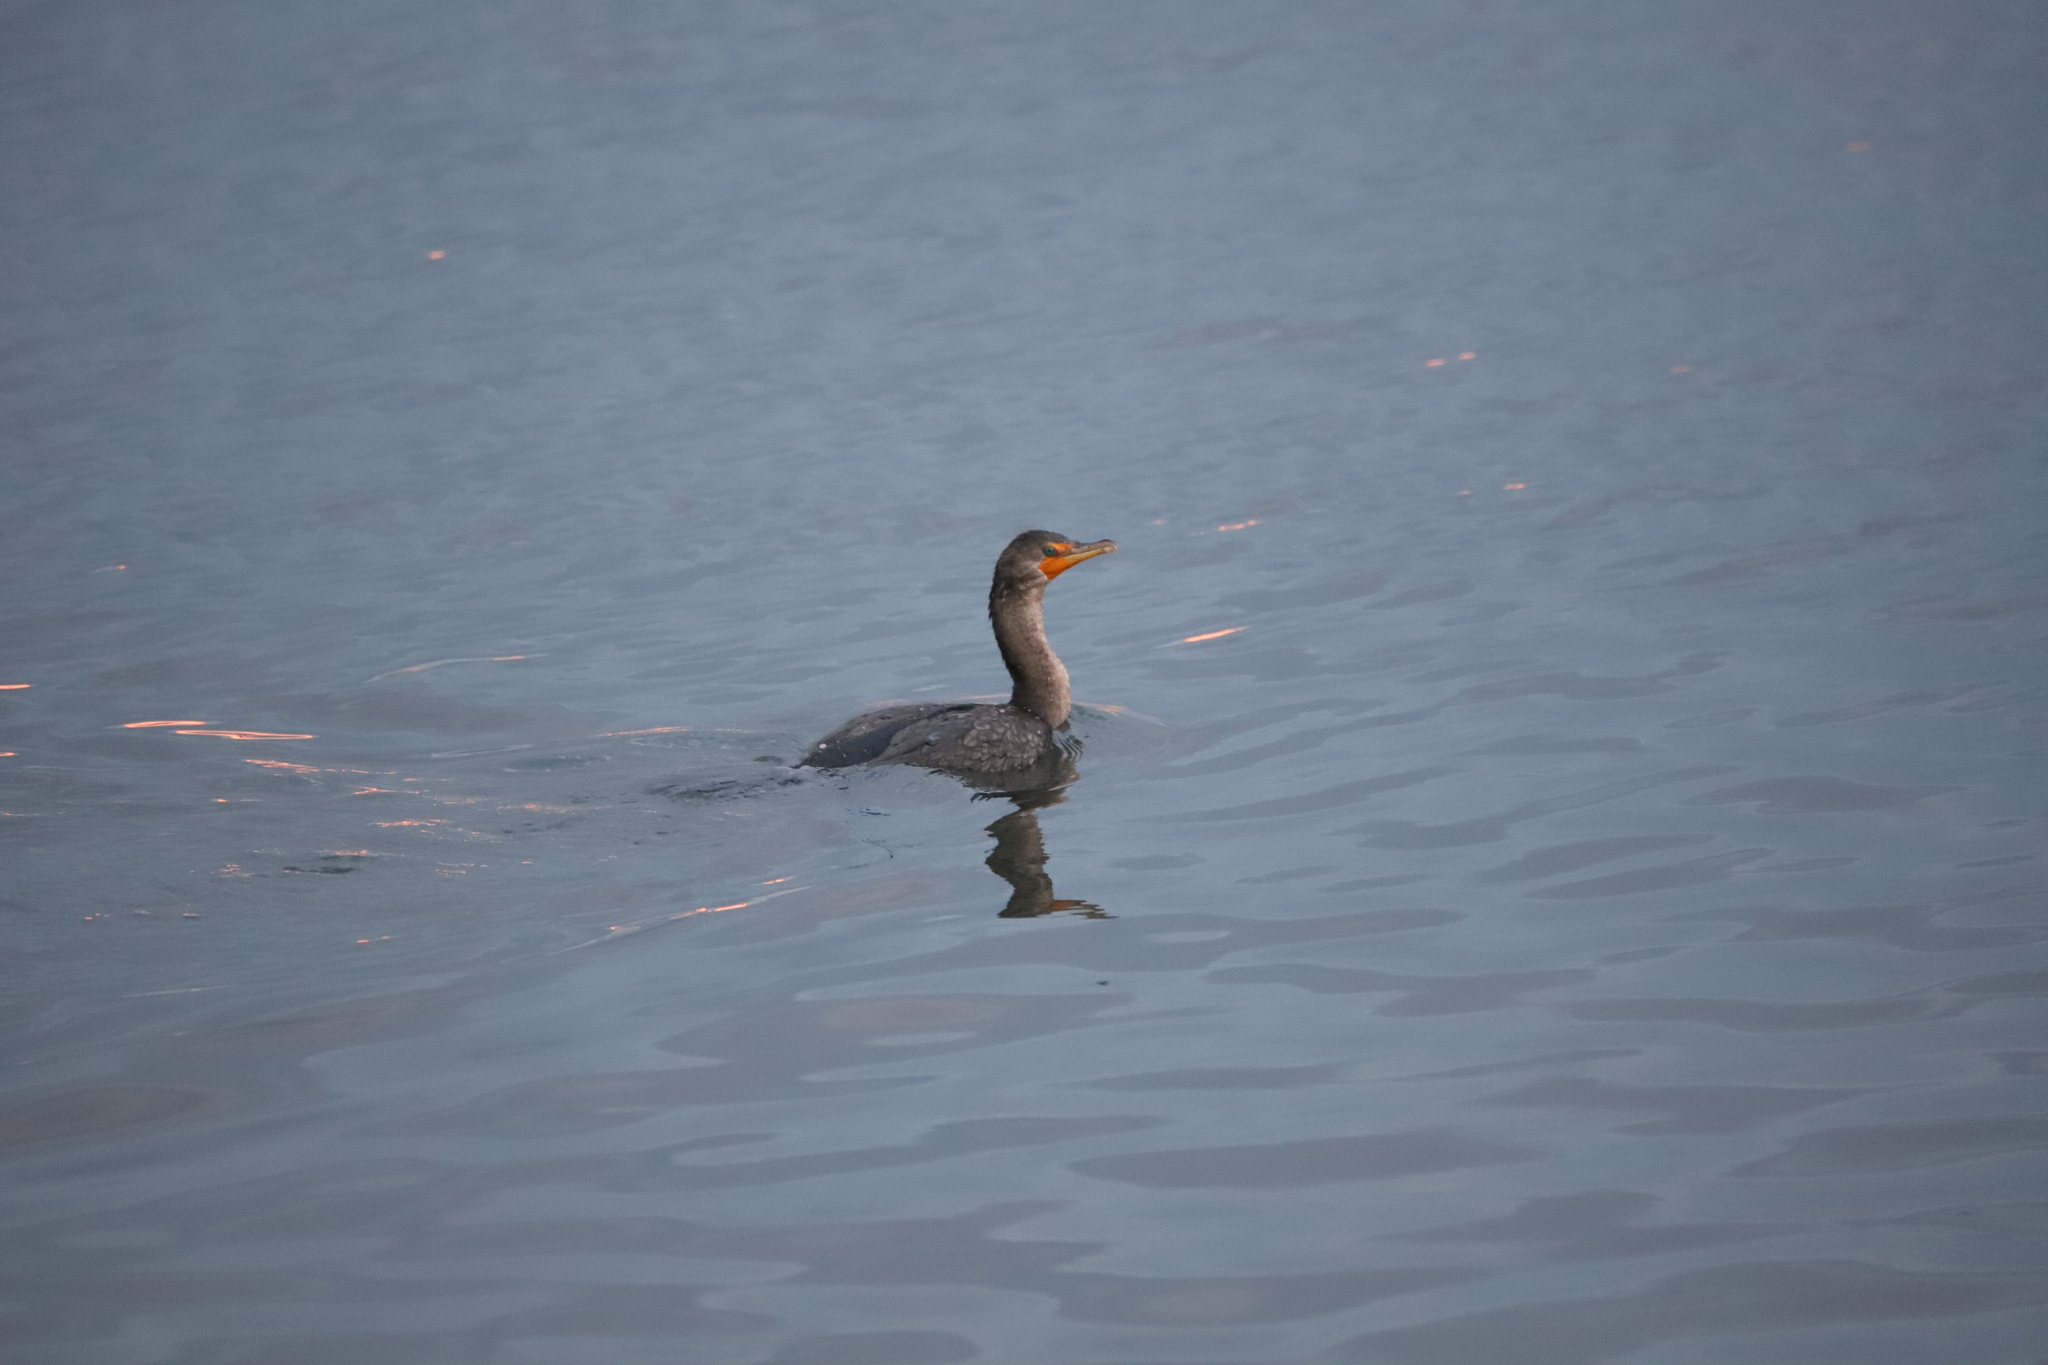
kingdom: Animalia
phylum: Chordata
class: Aves
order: Suliformes
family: Phalacrocoracidae
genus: Phalacrocorax
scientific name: Phalacrocorax auritus
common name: Double-crested cormorant
